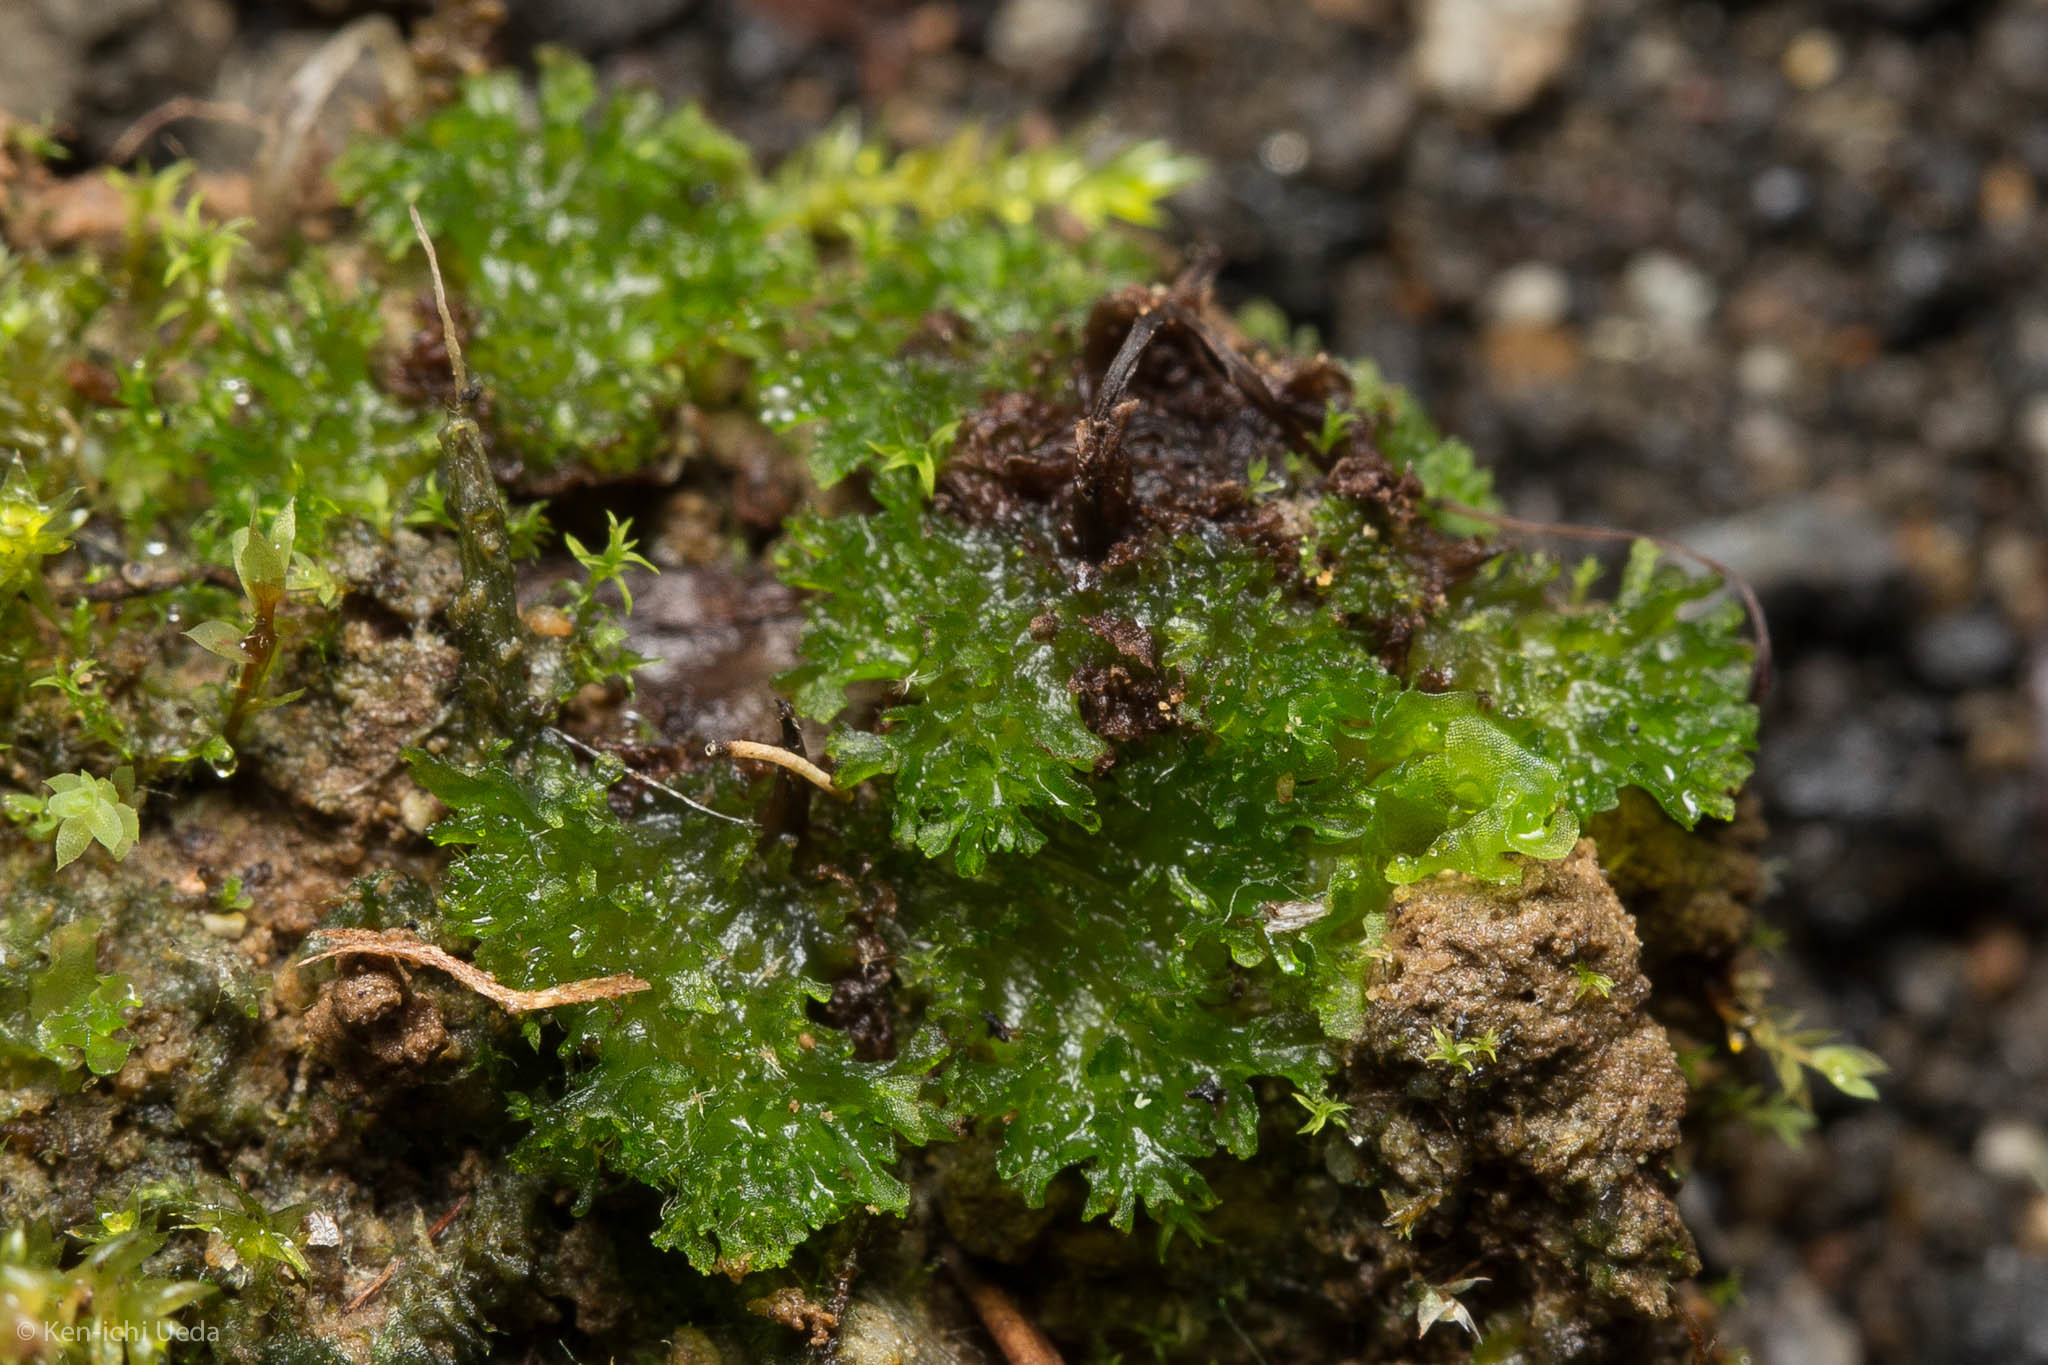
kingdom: Plantae
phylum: Anthocerotophyta
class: Anthocerotopsida
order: Anthocerotales
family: Anthocerotaceae
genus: Anthoceros
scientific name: Anthoceros fusiformis
